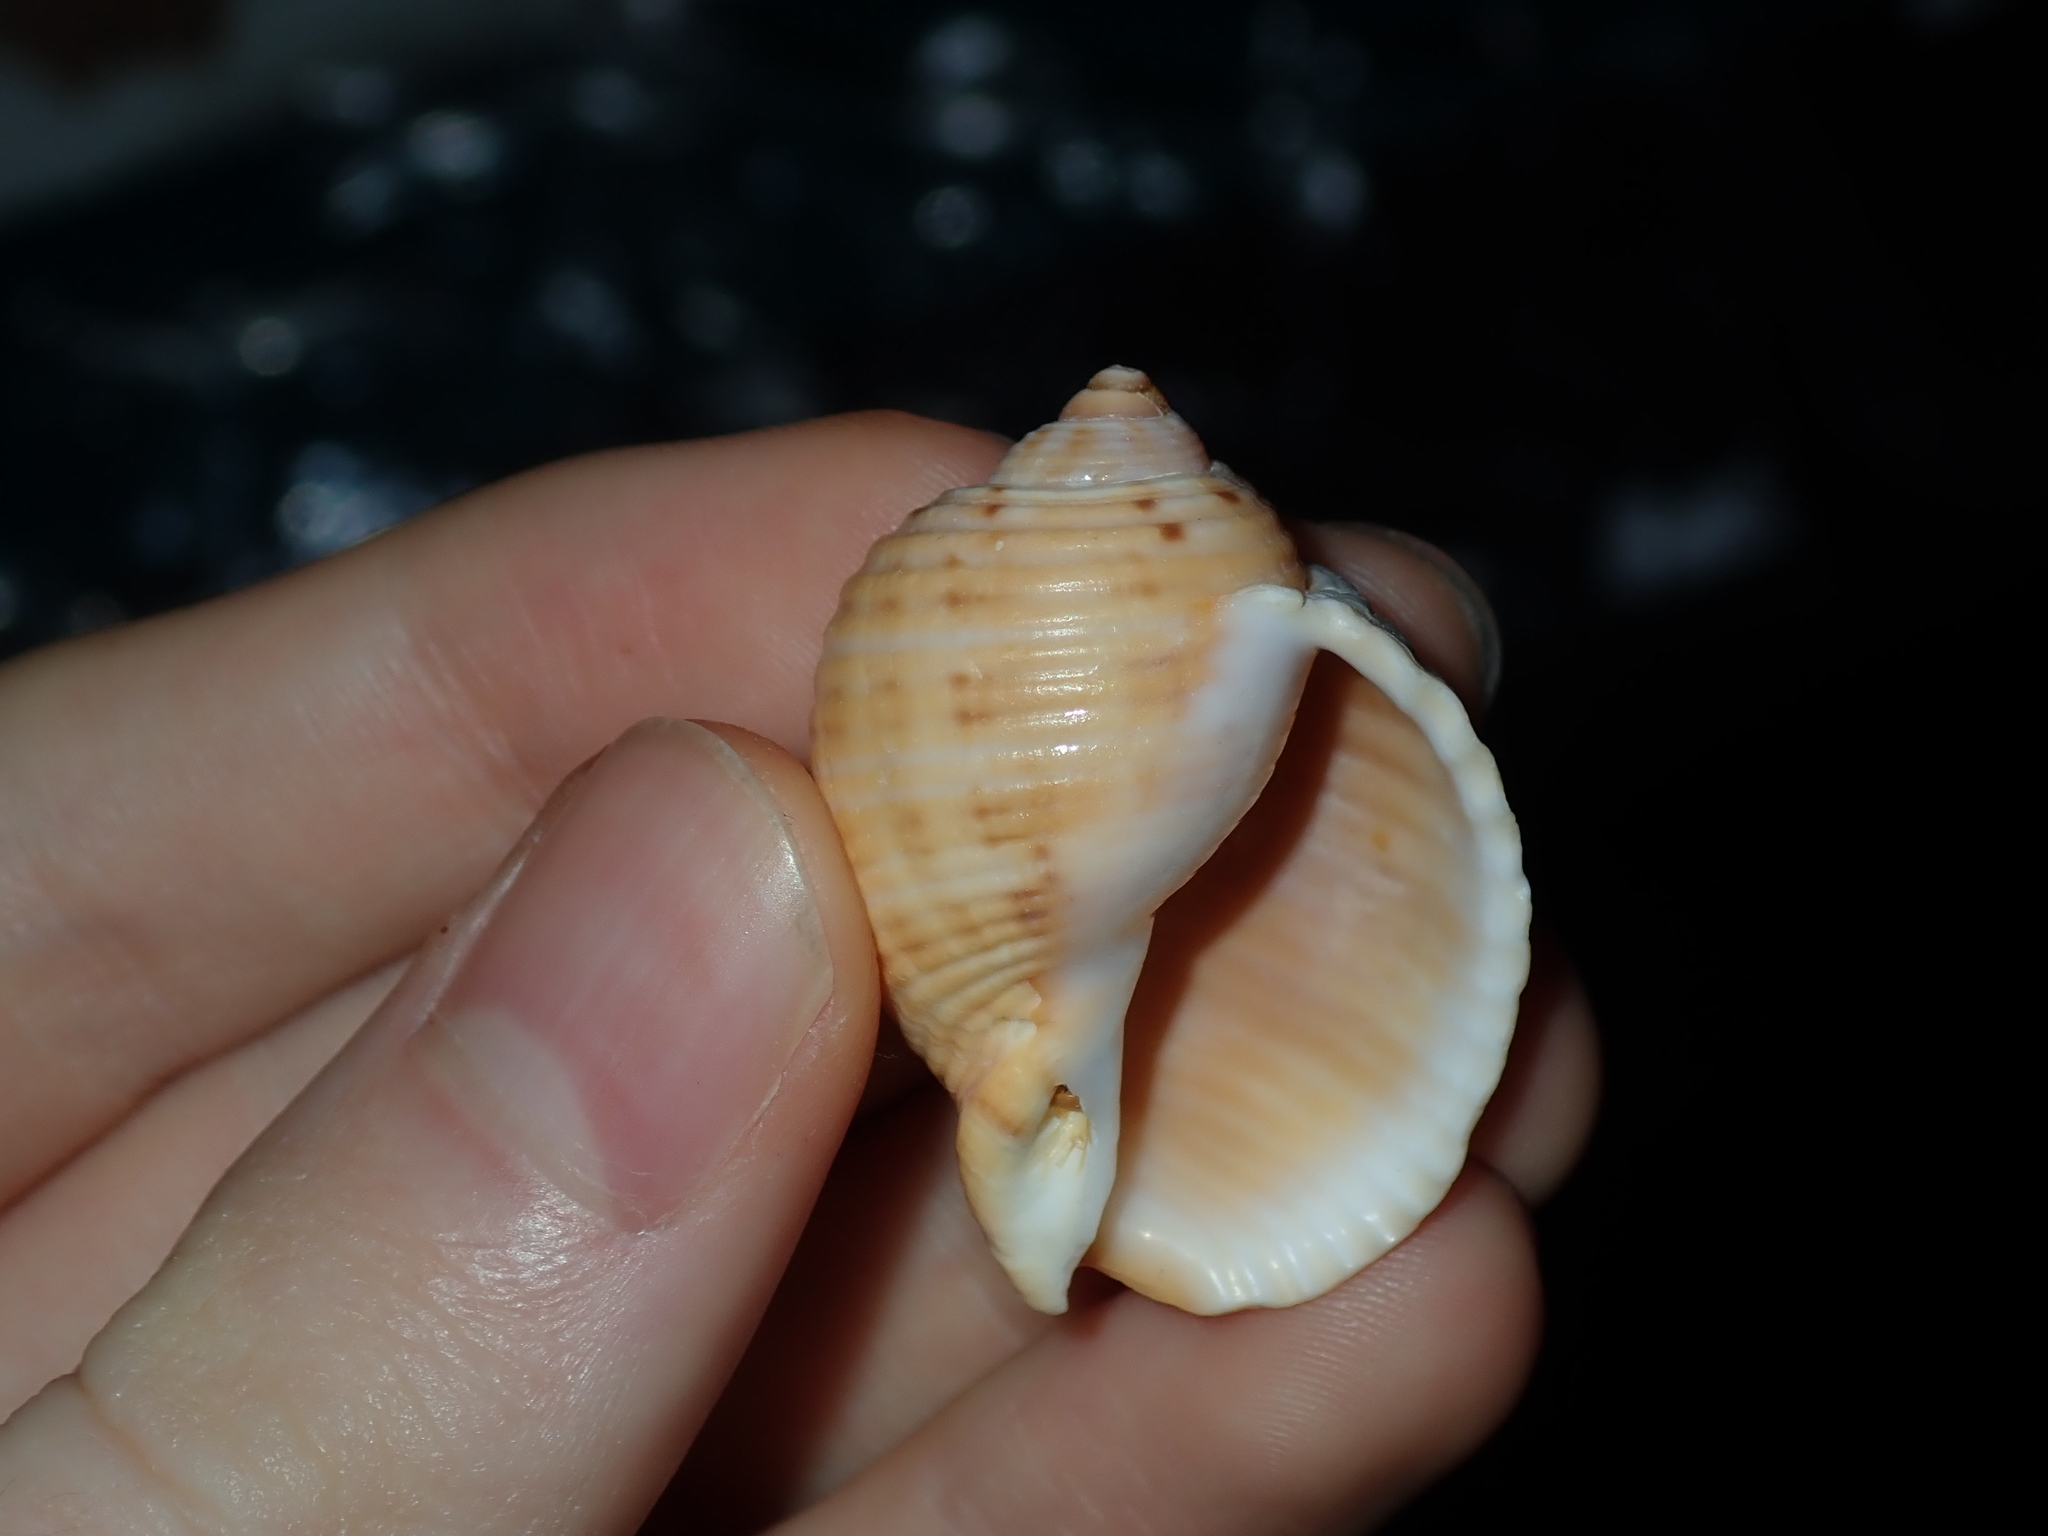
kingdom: Animalia
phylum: Mollusca
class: Gastropoda
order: Littorinimorpha
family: Tonnidae
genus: Tonna
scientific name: Tonna tankervillii
